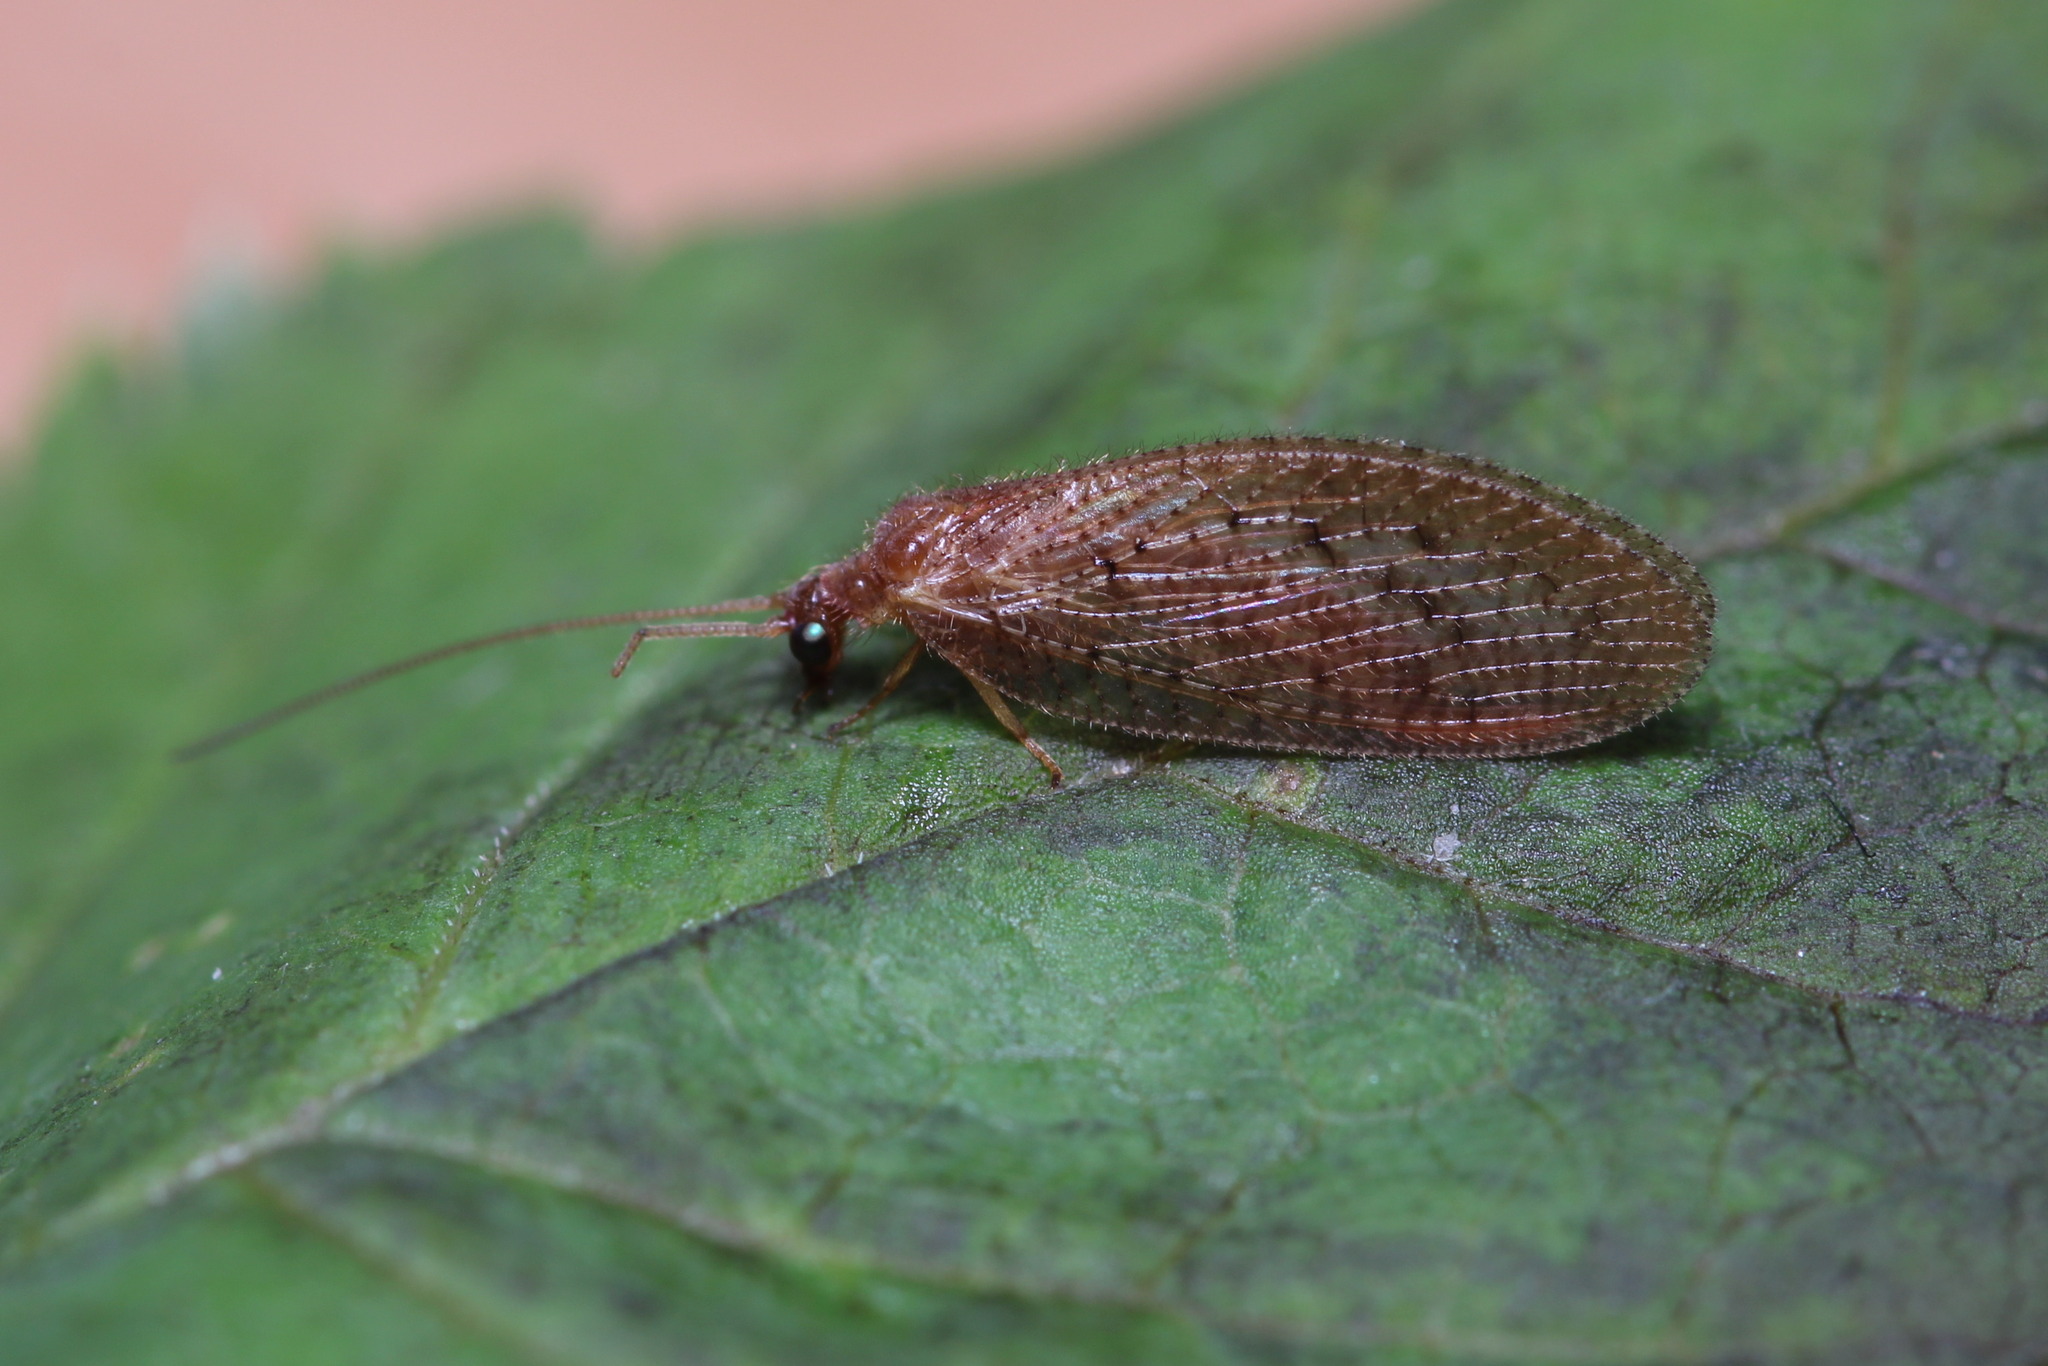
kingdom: Animalia
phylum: Arthropoda
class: Insecta
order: Neuroptera
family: Hemerobiidae
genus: Hemerobius
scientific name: Hemerobius stigma
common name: Brown pine lacewing
